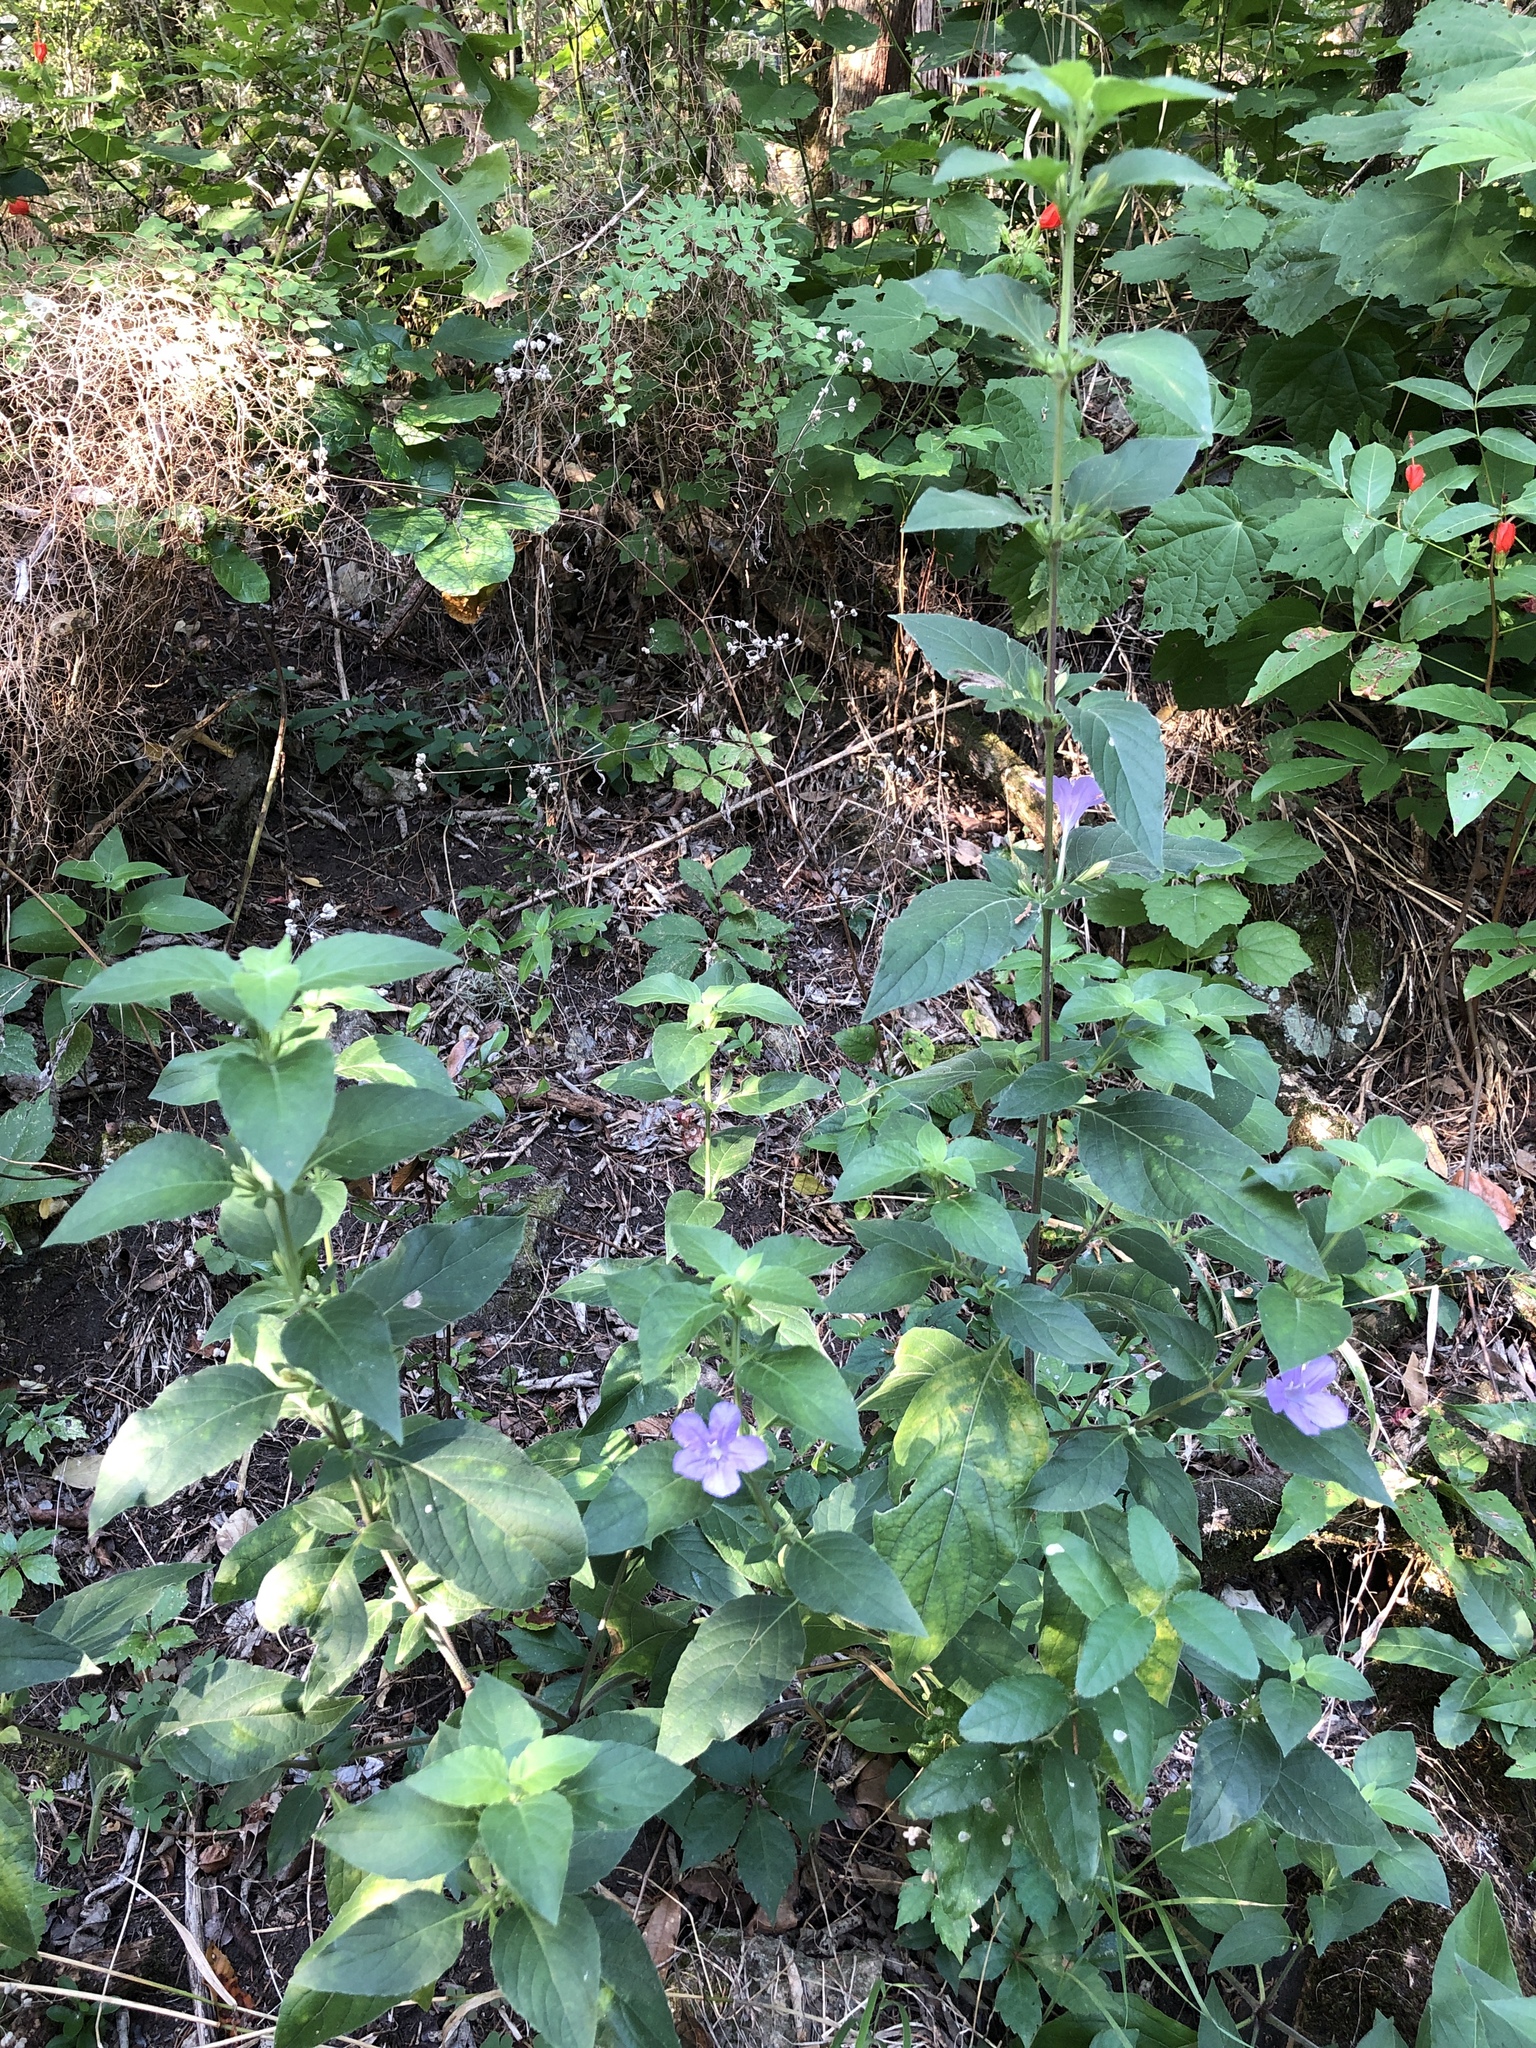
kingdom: Plantae
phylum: Tracheophyta
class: Magnoliopsida
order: Lamiales
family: Acanthaceae
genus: Ruellia
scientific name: Ruellia drummondiana
